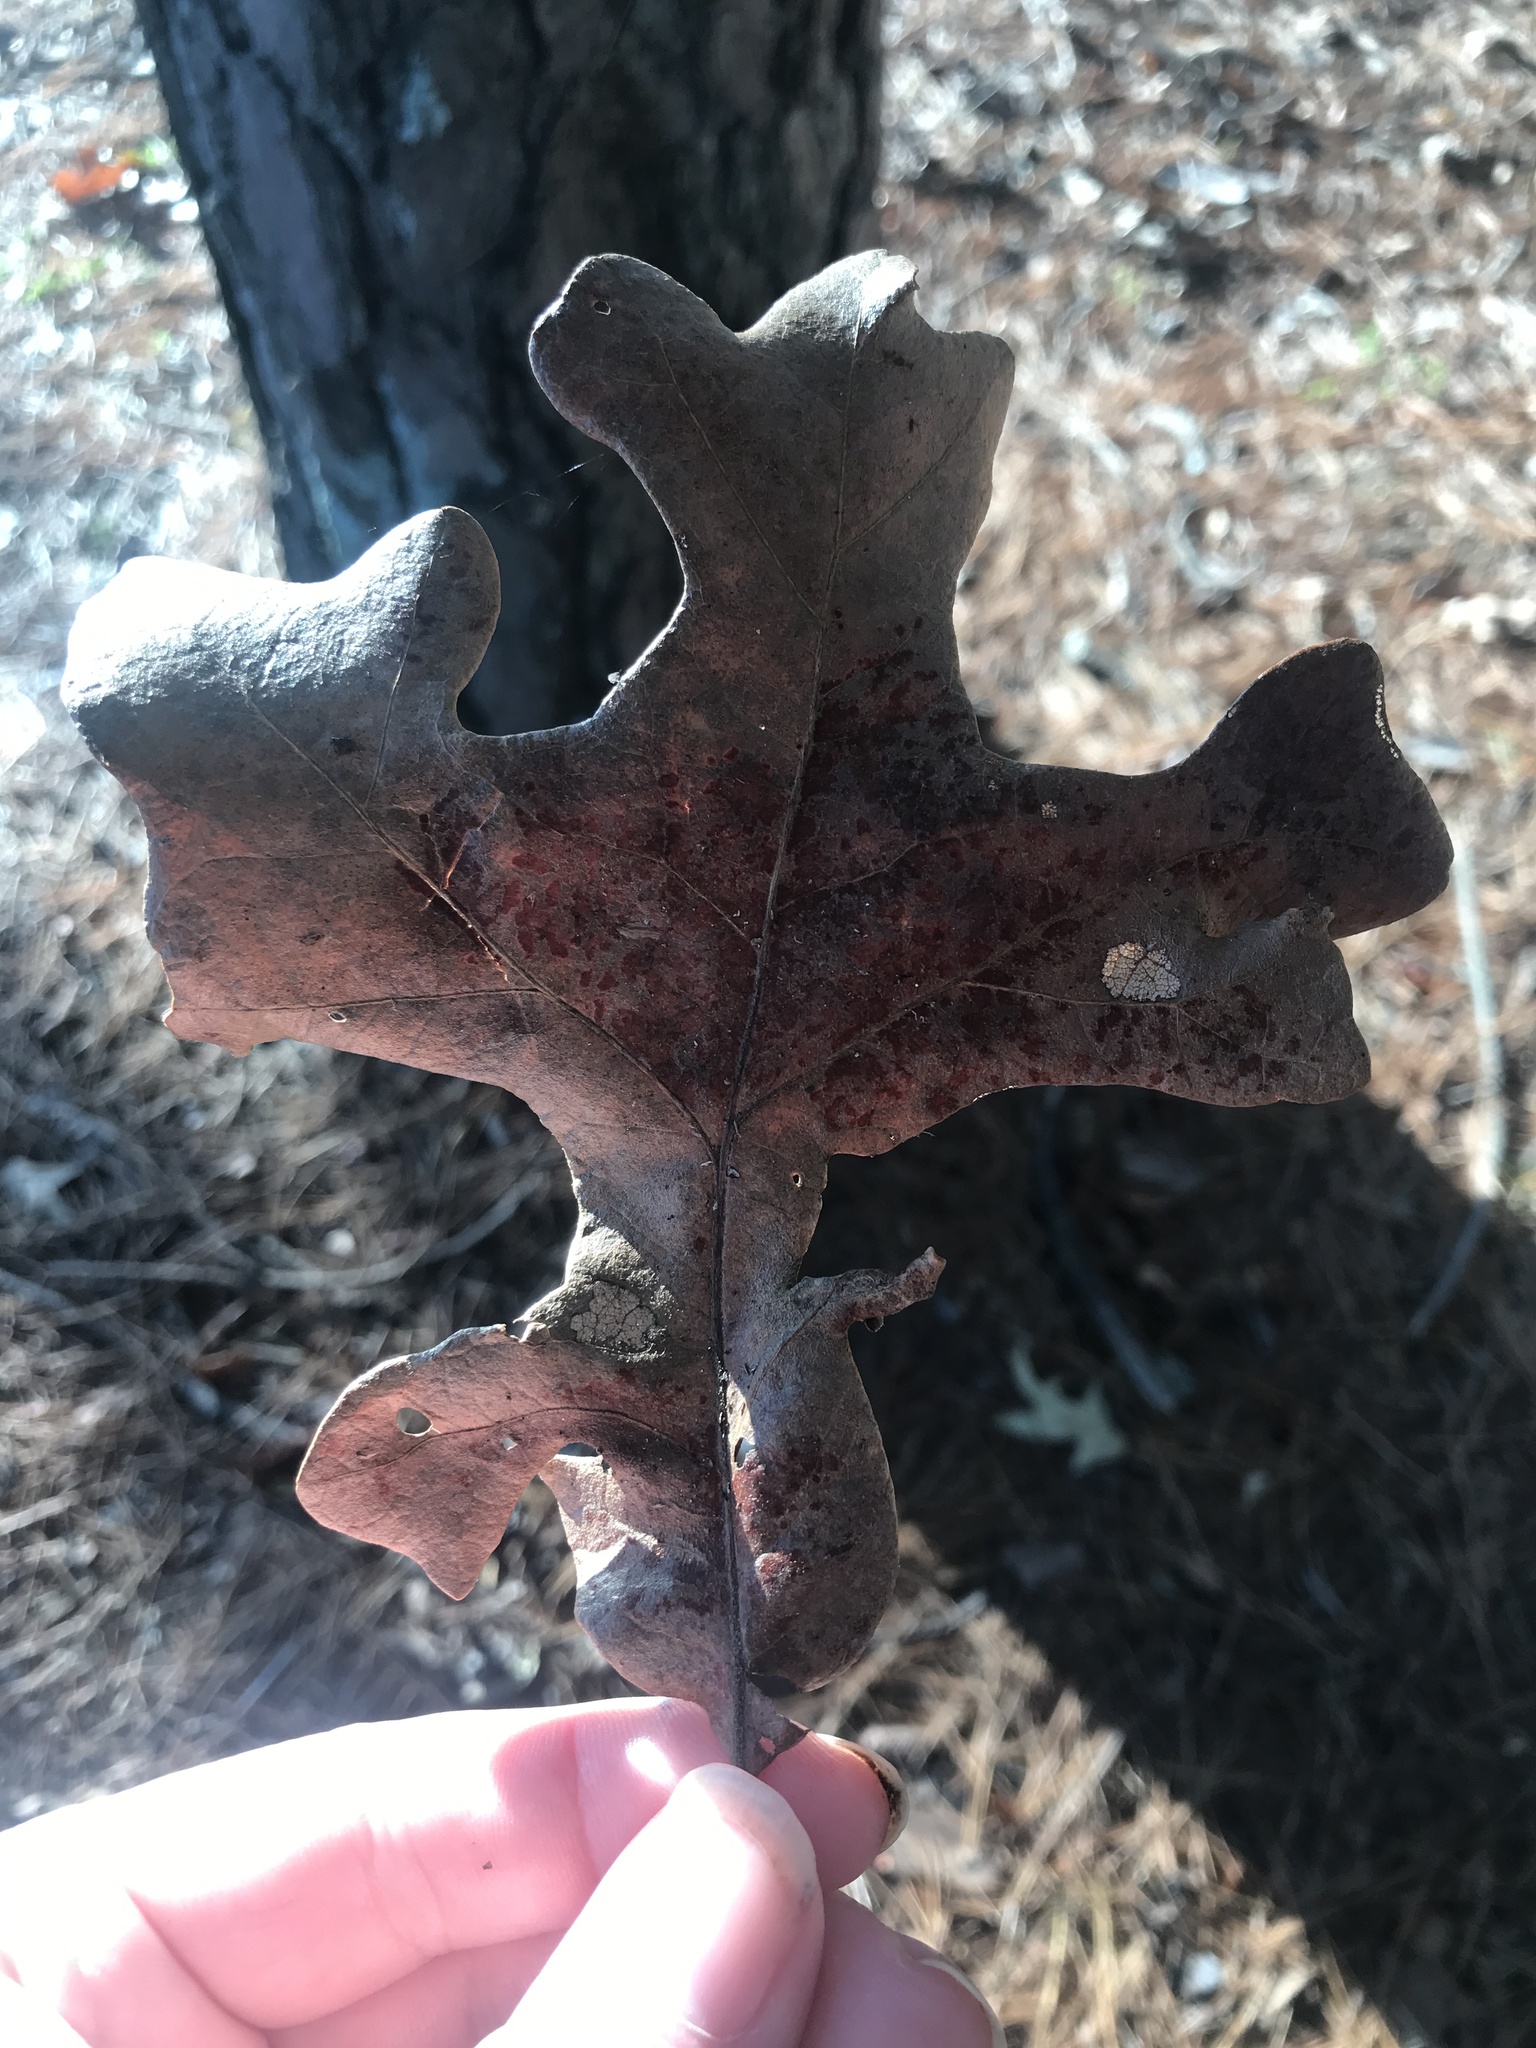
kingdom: Plantae
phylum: Tracheophyta
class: Magnoliopsida
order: Fagales
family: Fagaceae
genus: Quercus
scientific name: Quercus stellata
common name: Post oak
